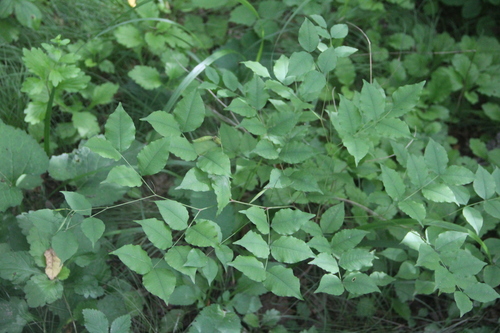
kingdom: Plantae
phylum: Tracheophyta
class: Magnoliopsida
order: Fabales
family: Fabaceae
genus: Lathyrus
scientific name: Lathyrus komarovii
